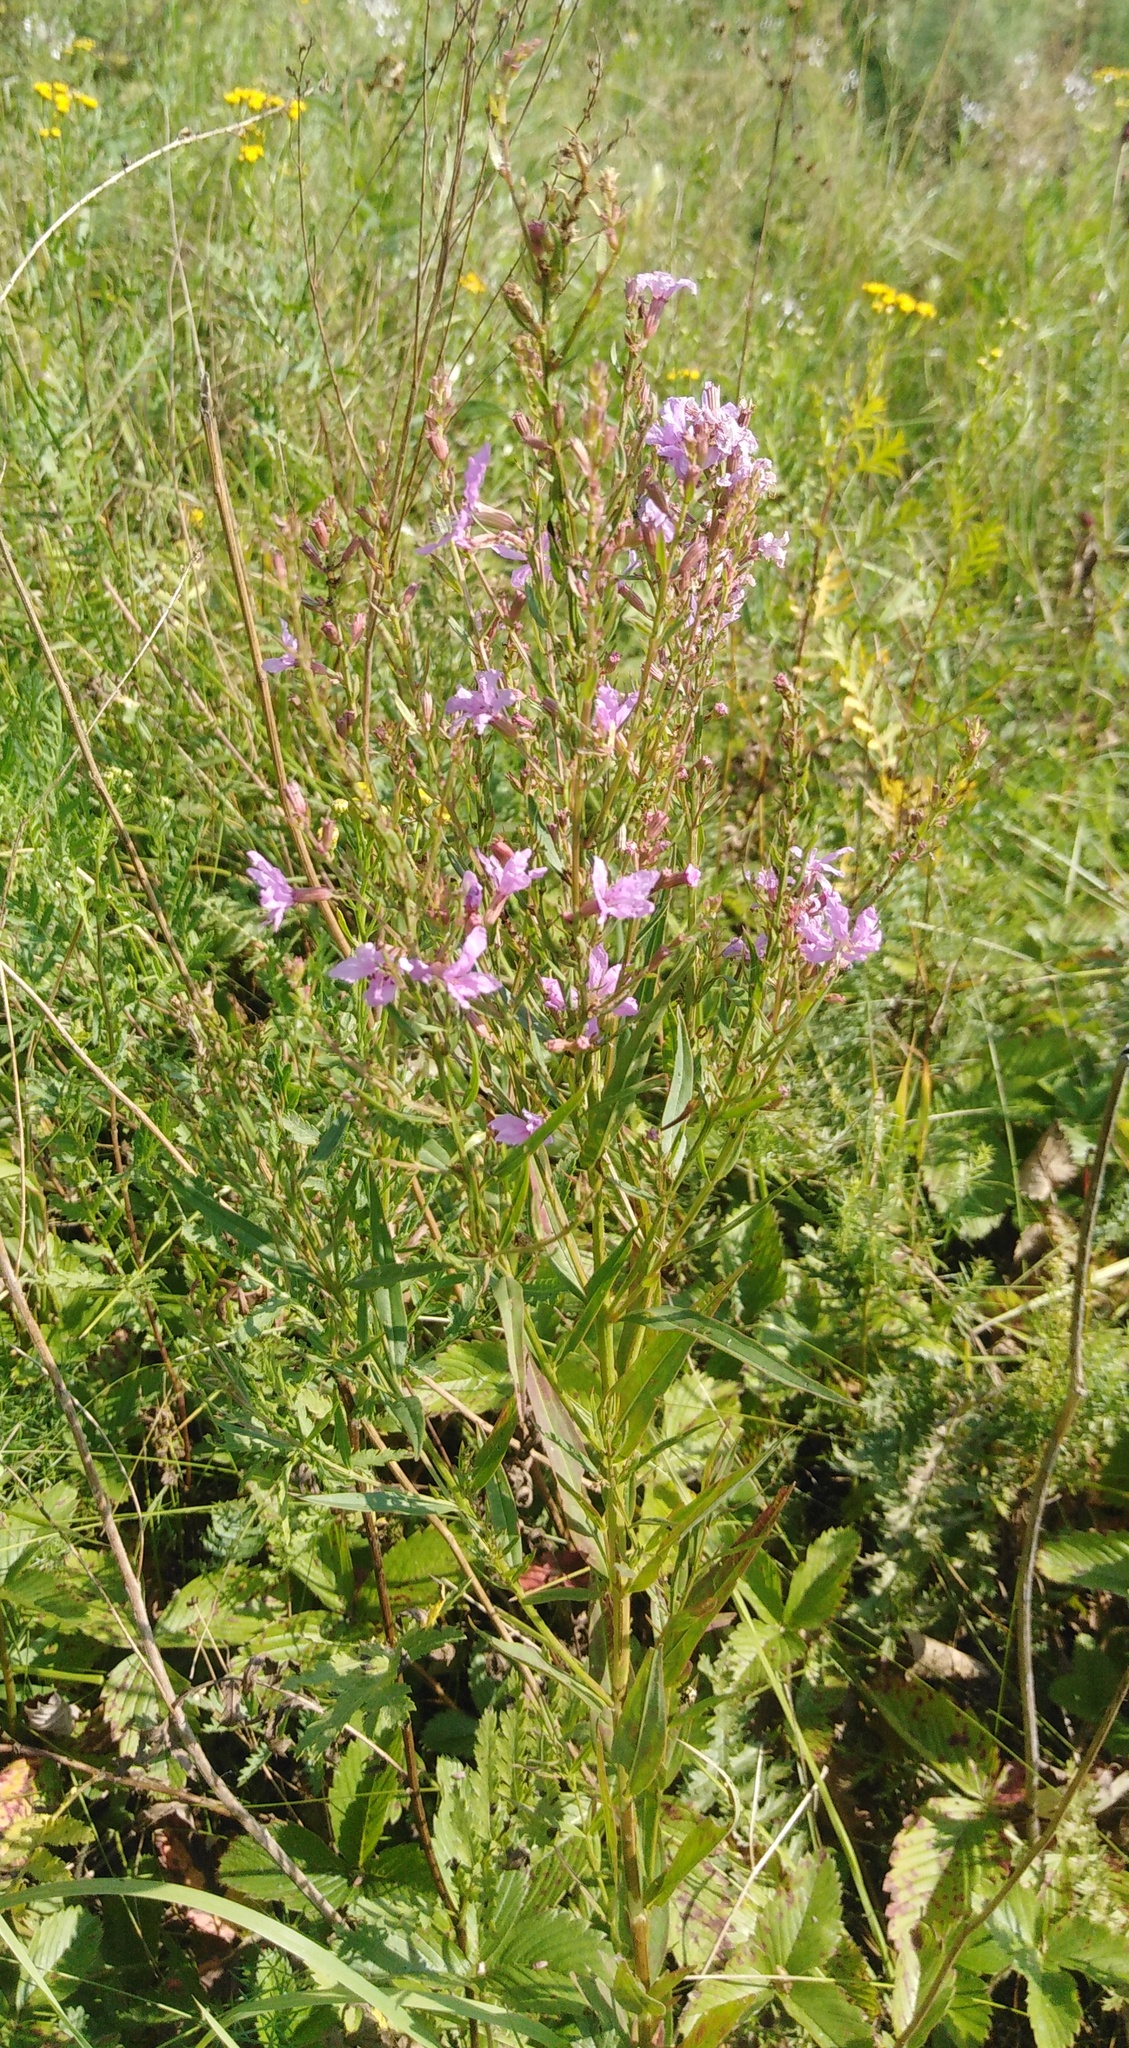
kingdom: Plantae
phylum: Tracheophyta
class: Magnoliopsida
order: Myrtales
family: Lythraceae
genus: Lythrum
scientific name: Lythrum virgatum
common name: European wand loosestrife
